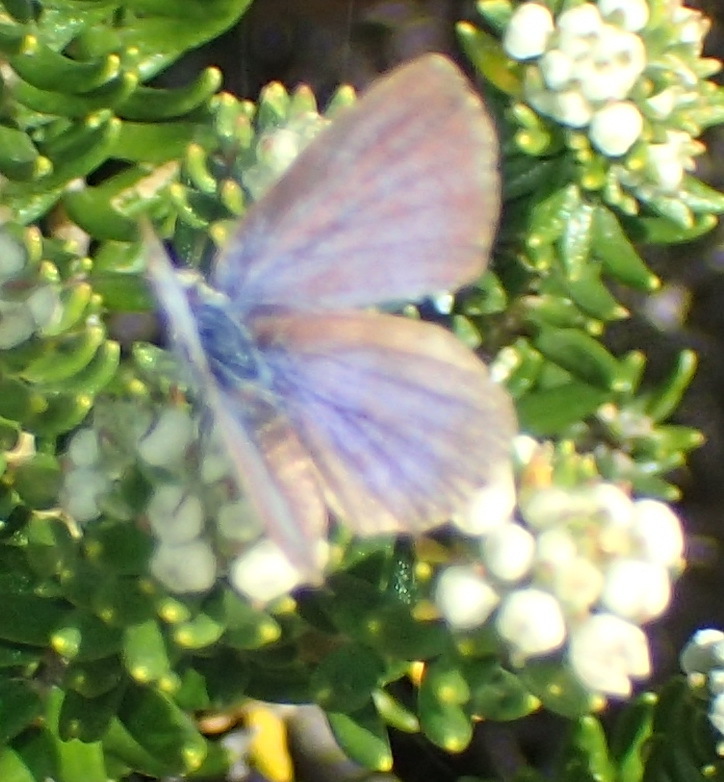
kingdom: Animalia
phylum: Arthropoda
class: Insecta
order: Lepidoptera
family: Lycaenidae
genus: Tarucus
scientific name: Tarucus thespis
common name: Vivid dotted blue
